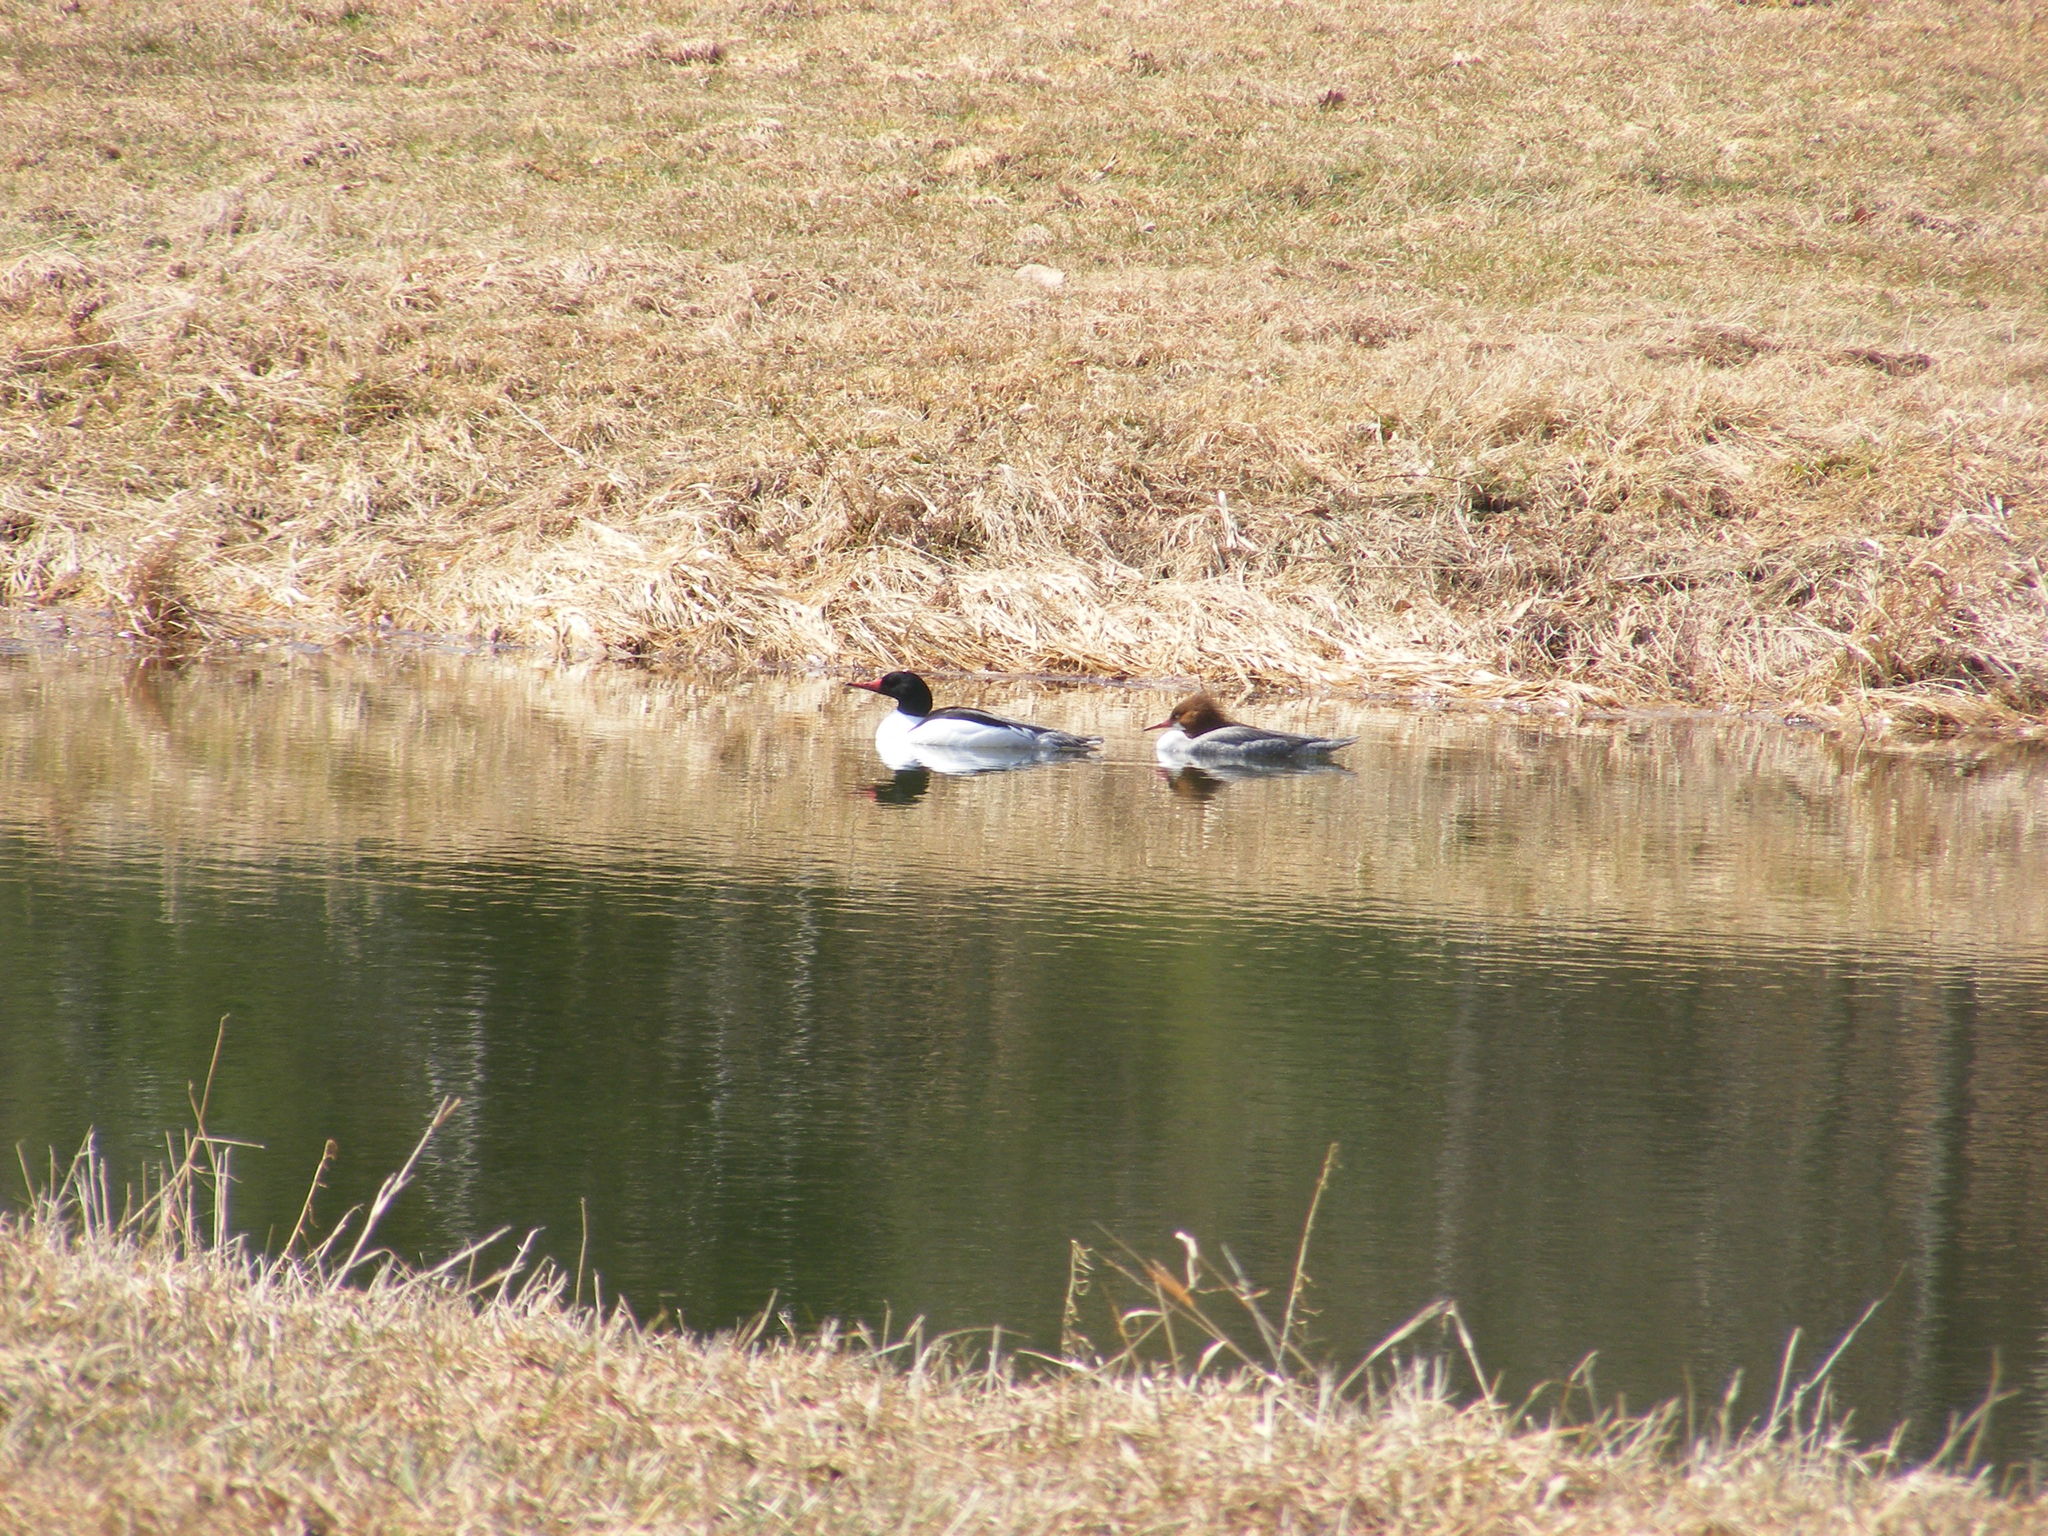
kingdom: Animalia
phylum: Chordata
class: Aves
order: Anseriformes
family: Anatidae
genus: Mergus
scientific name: Mergus merganser
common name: Common merganser
